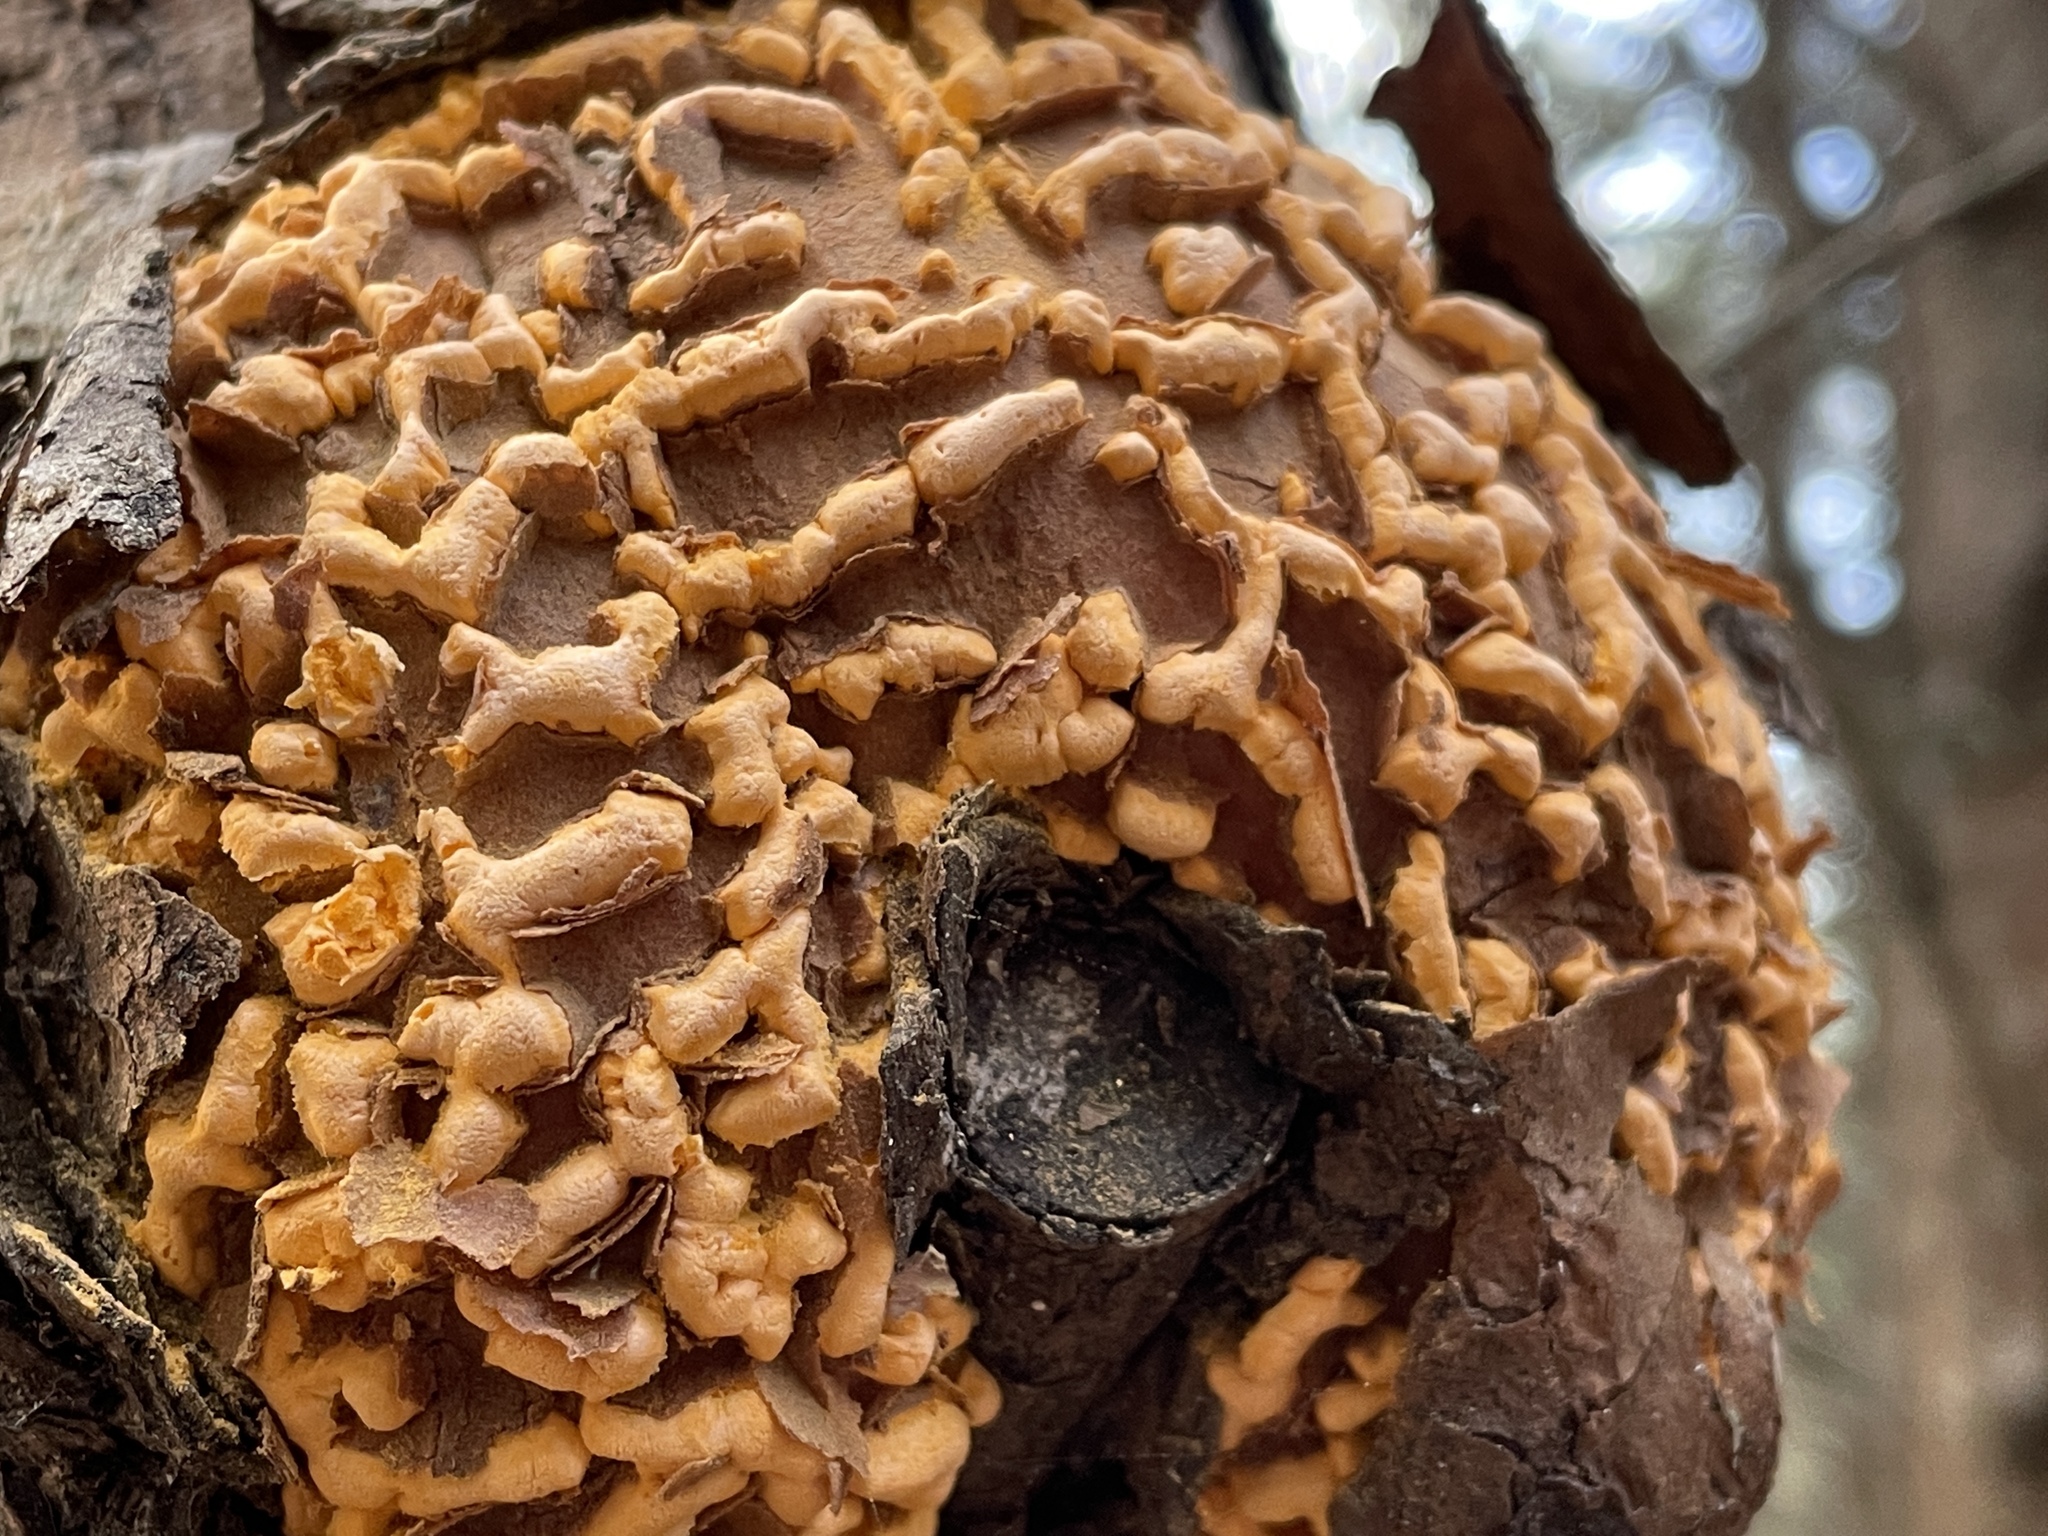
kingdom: Fungi
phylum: Basidiomycota
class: Pucciniomycetes
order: Pucciniales
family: Cronartiaceae
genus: Cronartium
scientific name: Cronartium quercuum
